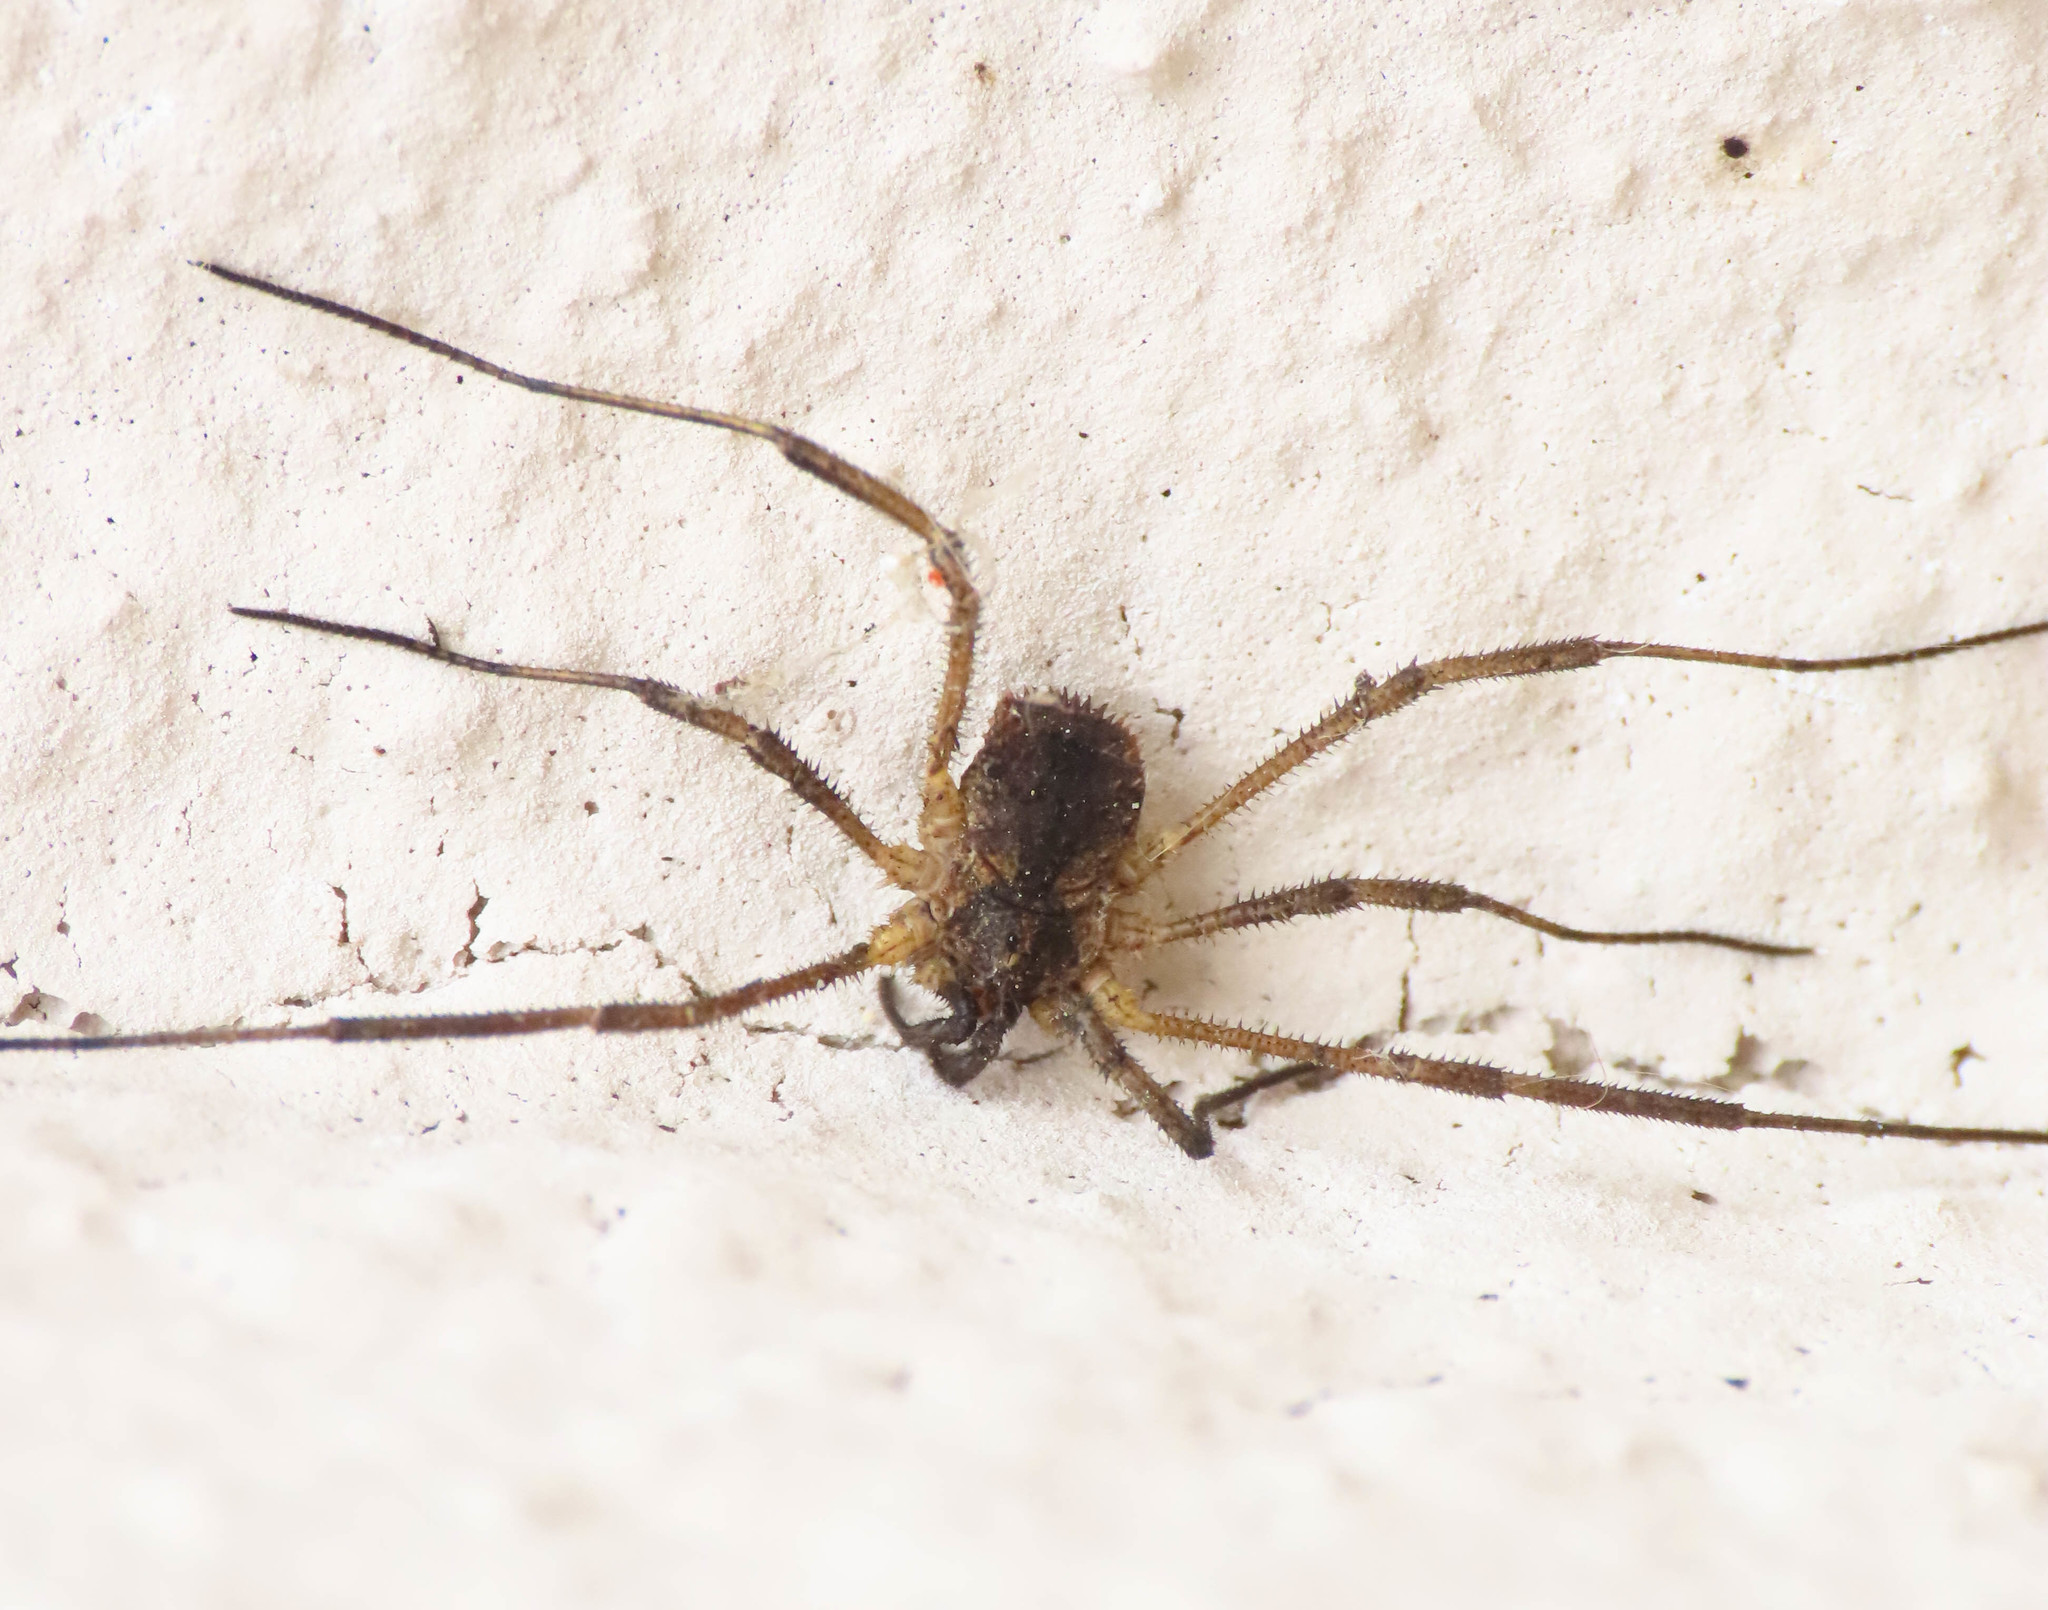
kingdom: Animalia
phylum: Arthropoda
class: Arachnida
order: Opiliones
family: Phalangiidae
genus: Lacinius
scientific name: Lacinius horridus
